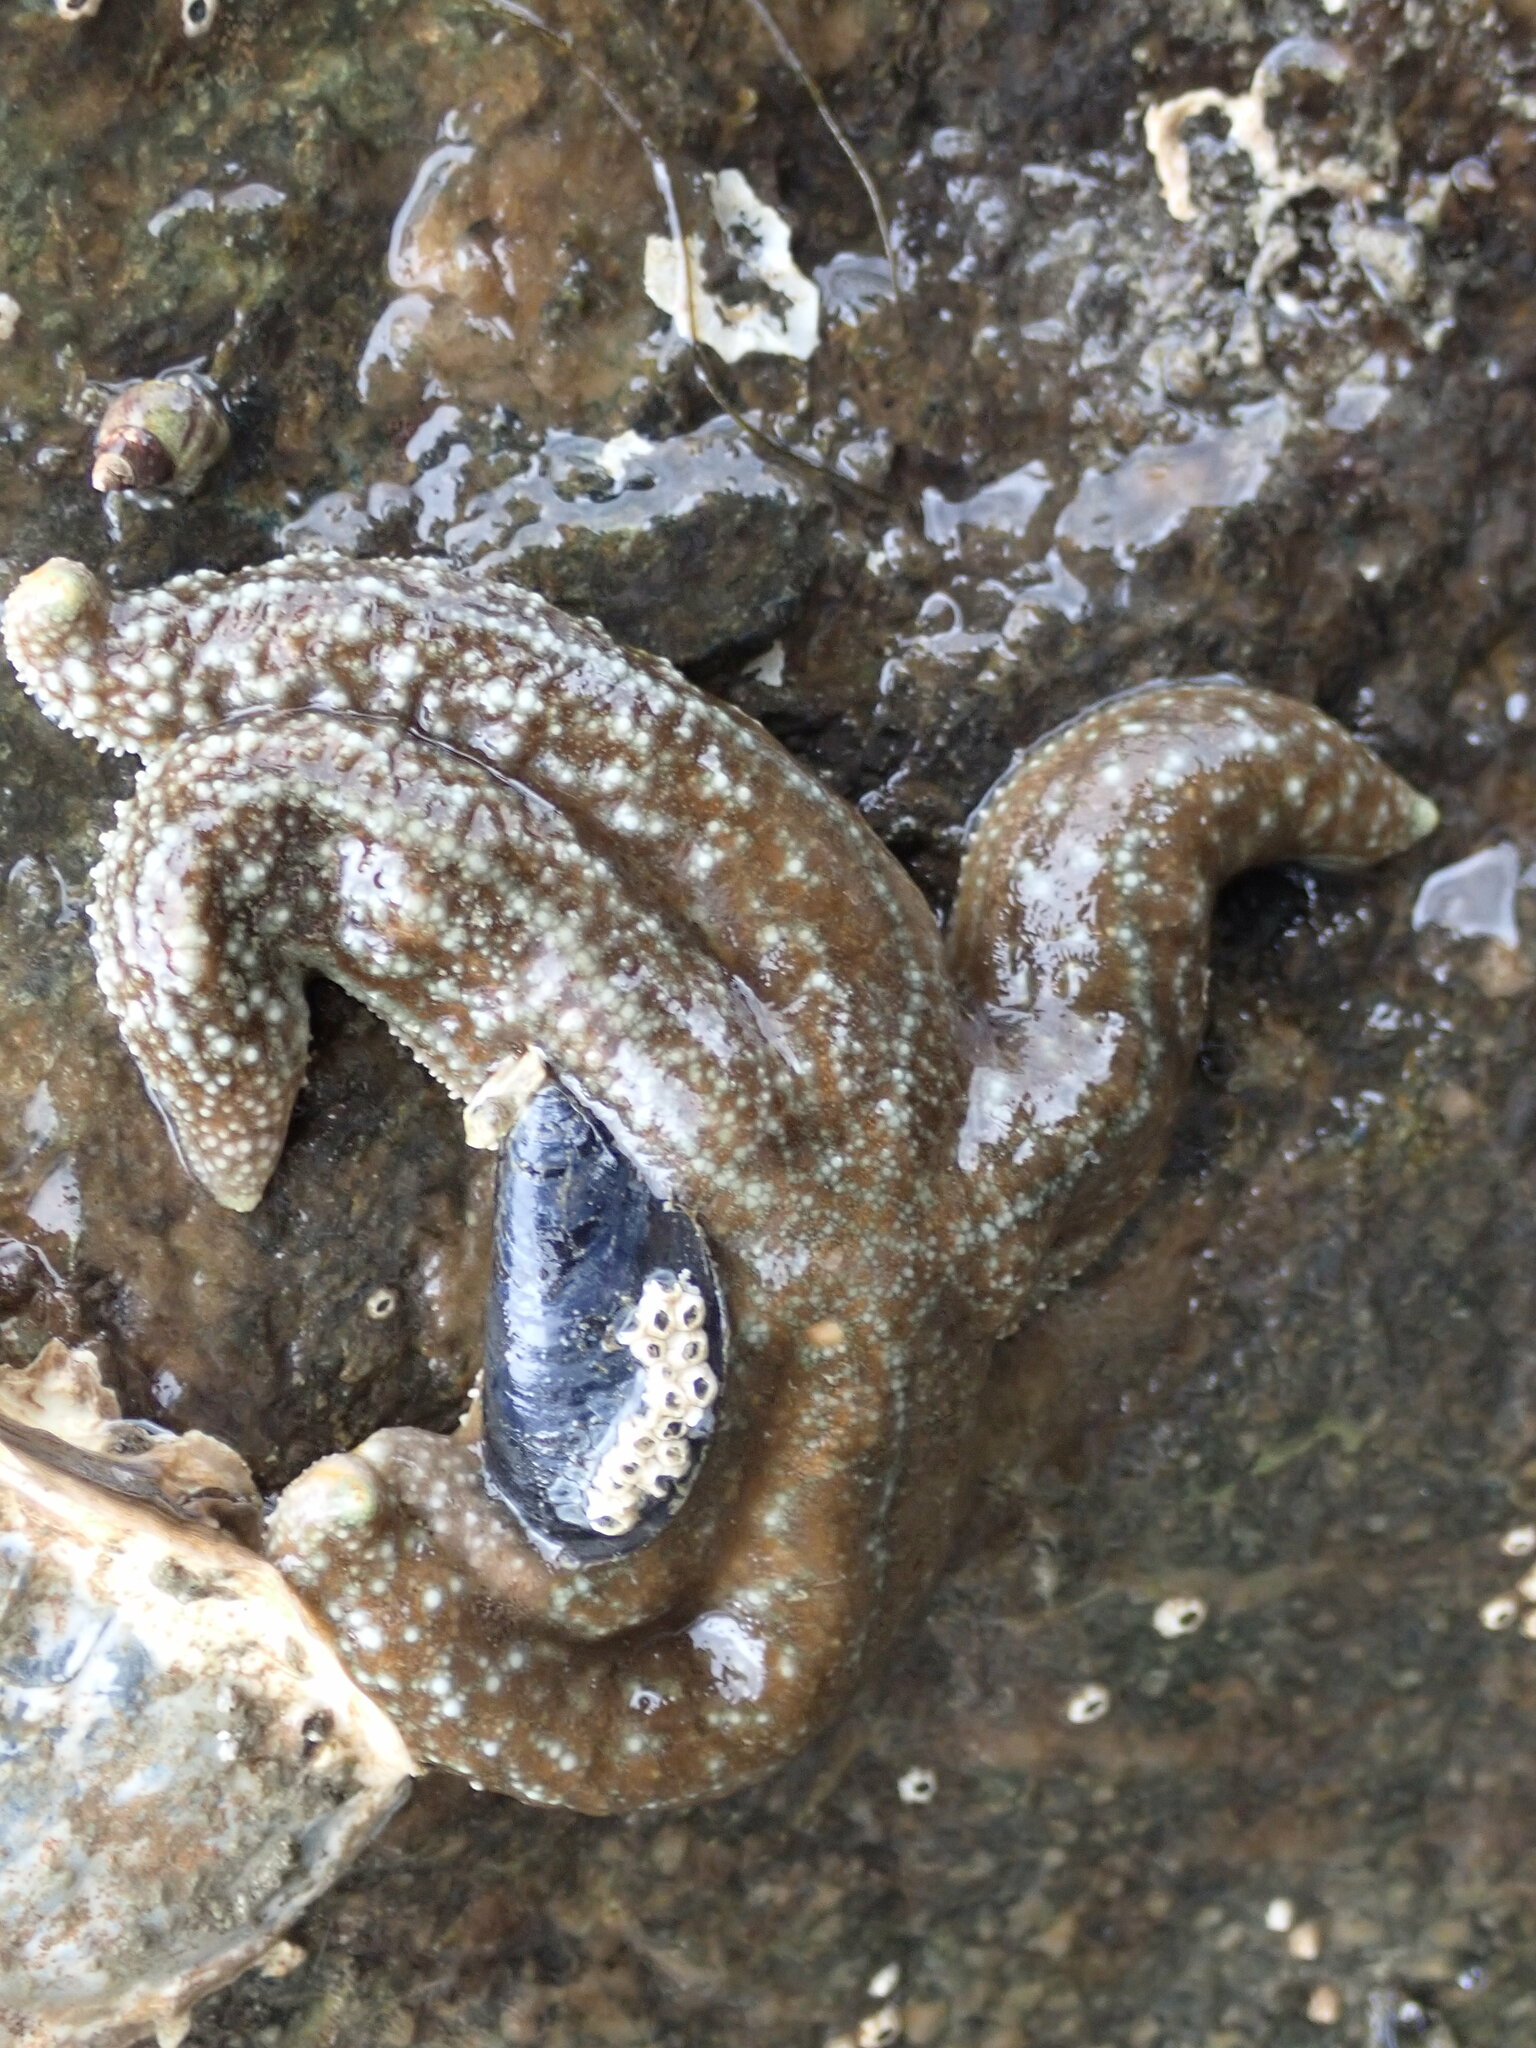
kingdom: Animalia
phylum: Echinodermata
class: Asteroidea
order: Forcipulatida
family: Asteriidae
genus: Evasterias
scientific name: Evasterias troschelii
